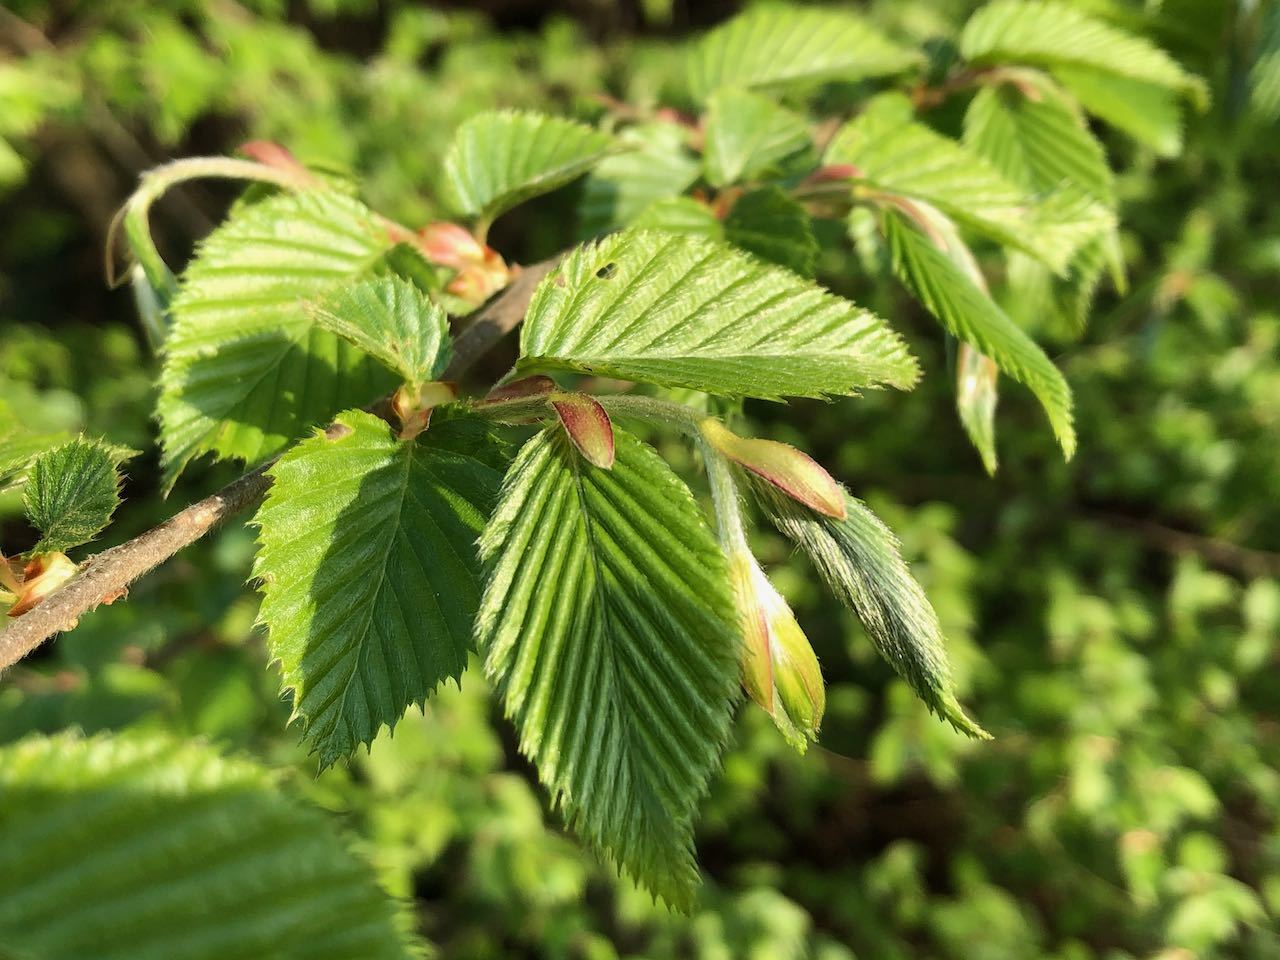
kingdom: Plantae
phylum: Tracheophyta
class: Magnoliopsida
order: Fagales
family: Betulaceae
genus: Carpinus
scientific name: Carpinus tschonoskii
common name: Asian hornbeam
